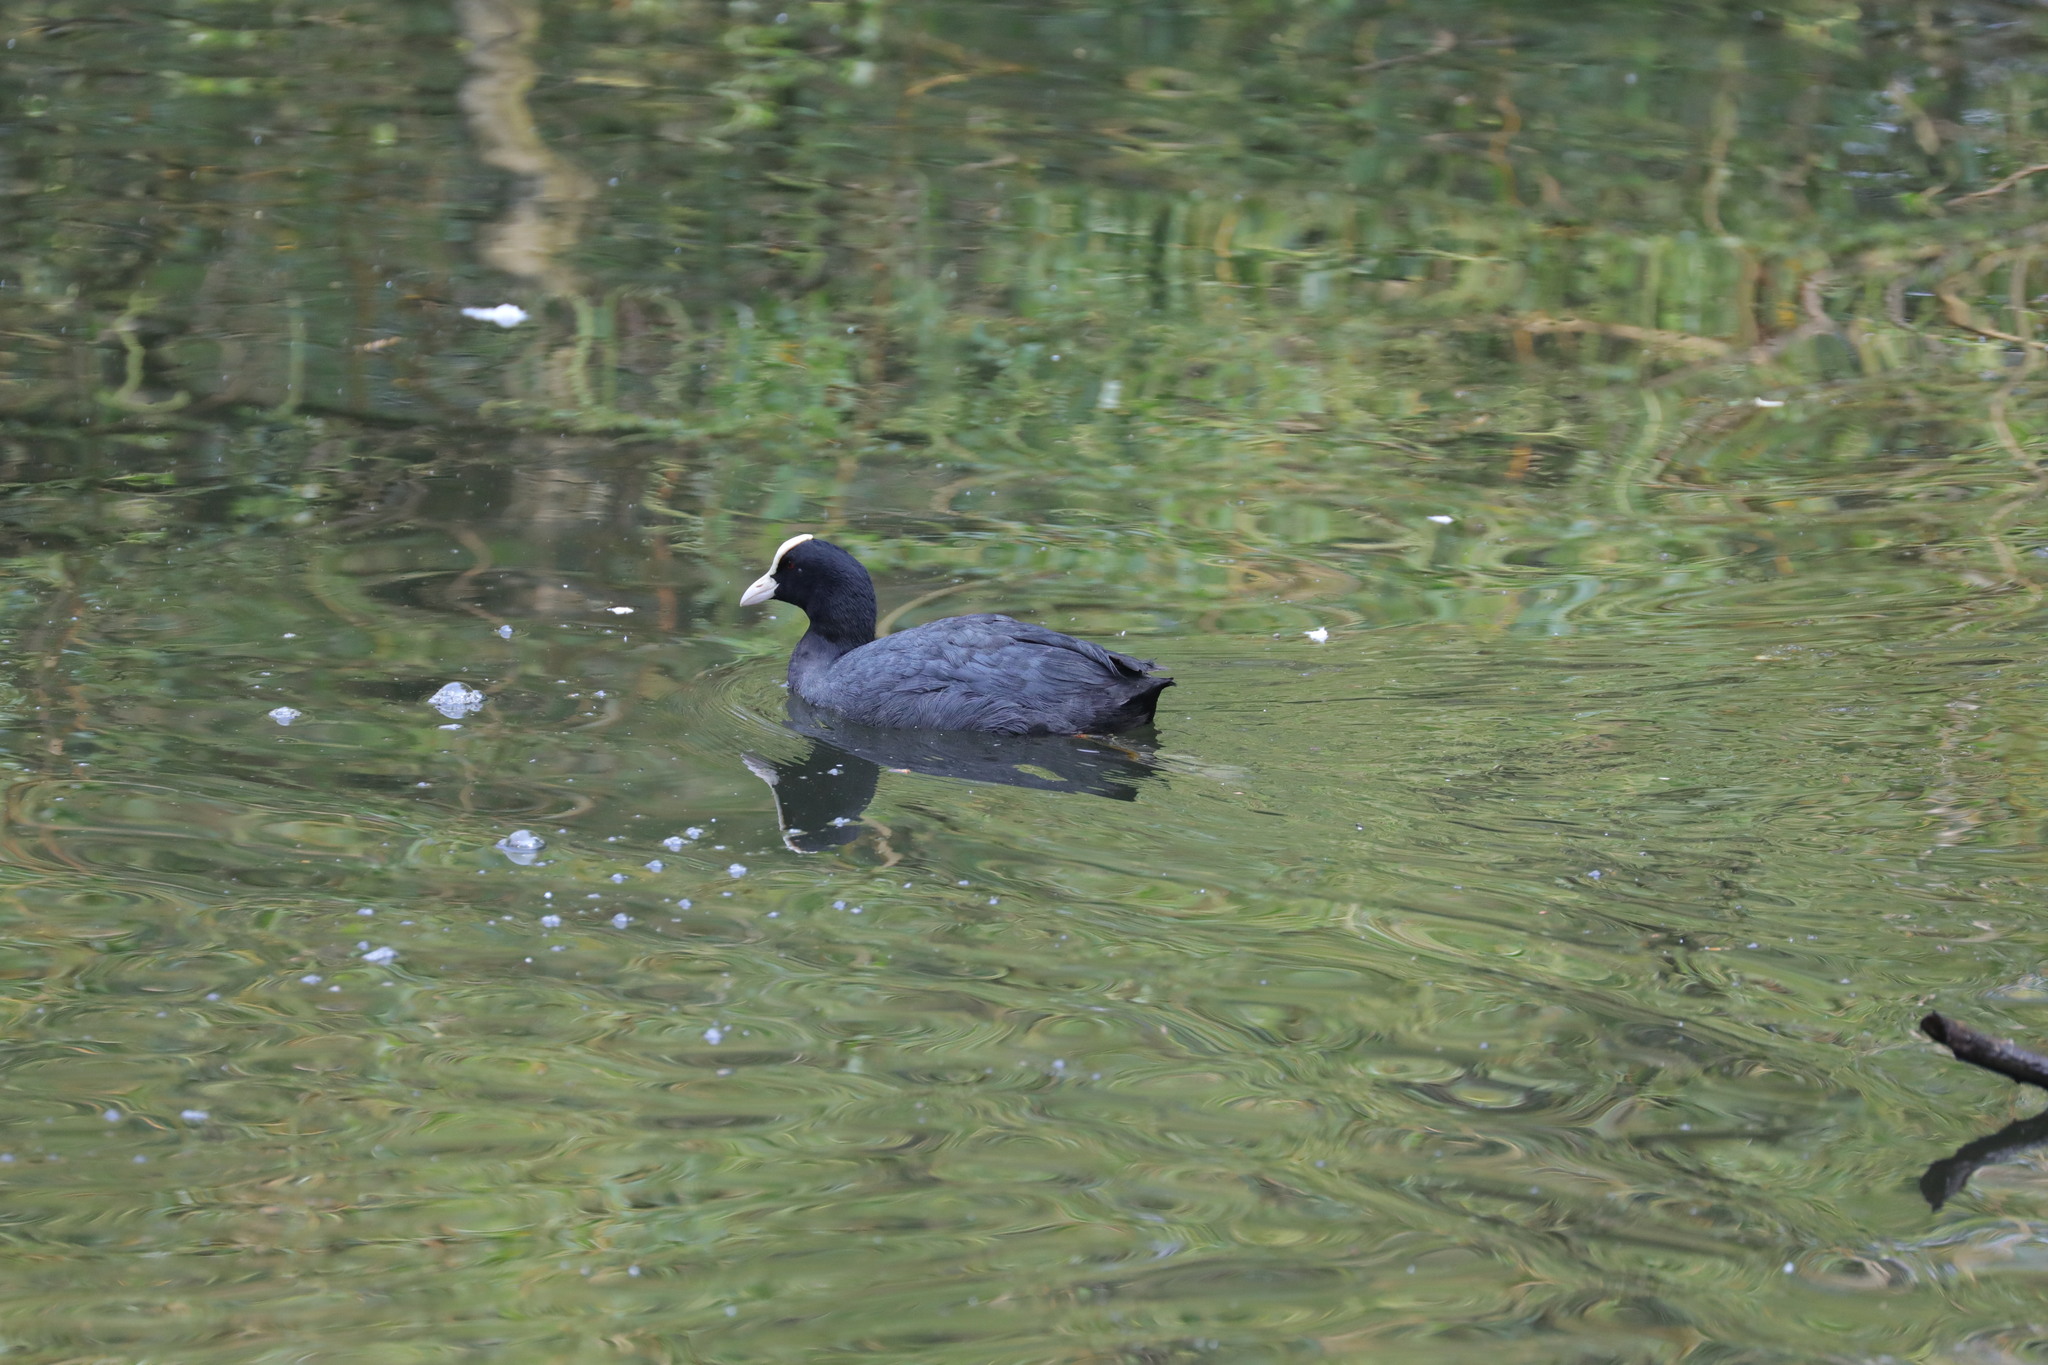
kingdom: Animalia
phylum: Chordata
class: Aves
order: Gruiformes
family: Rallidae
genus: Fulica
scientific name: Fulica atra
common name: Eurasian coot
